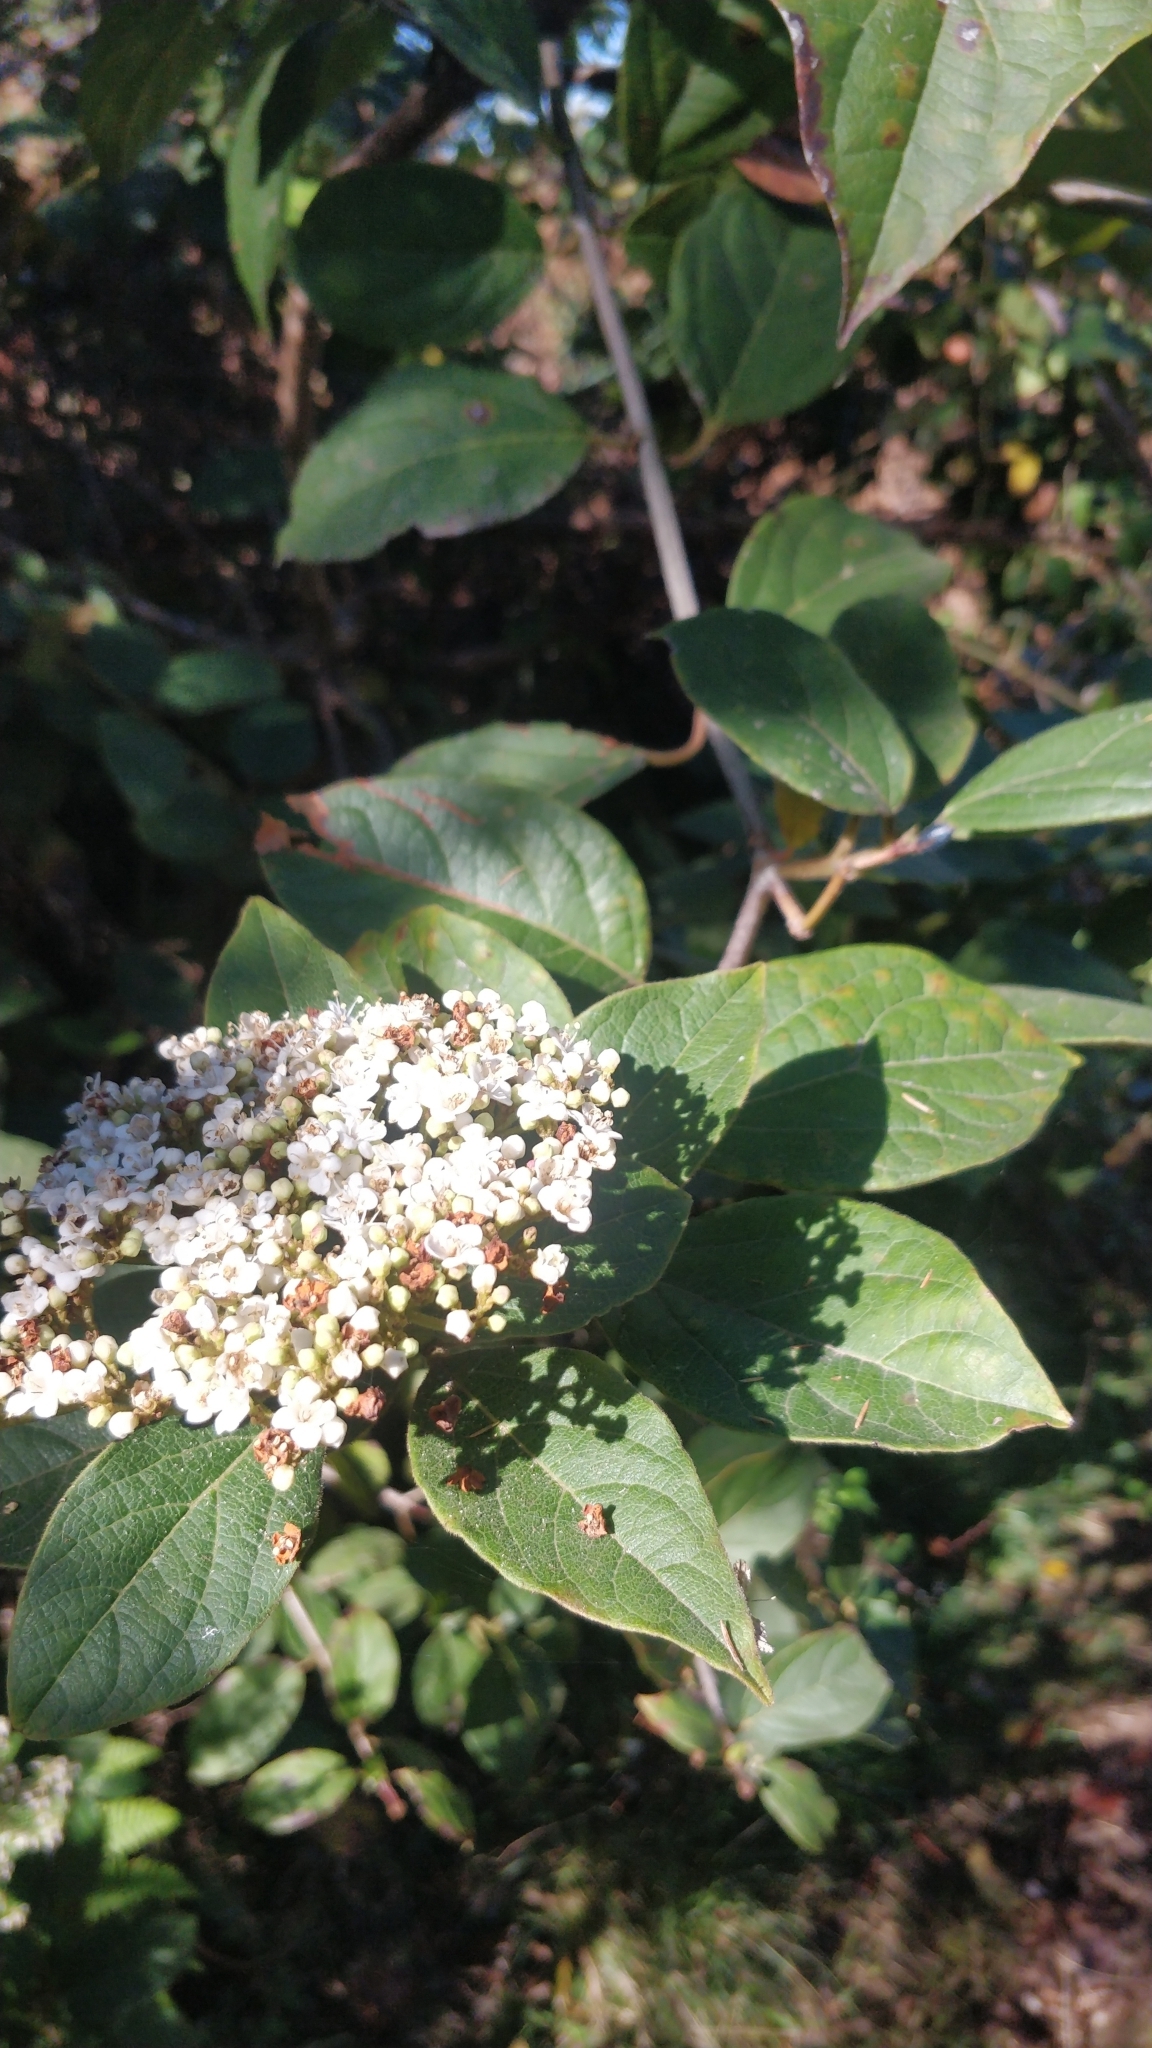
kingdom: Plantae
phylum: Tracheophyta
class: Magnoliopsida
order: Dipsacales
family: Viburnaceae
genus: Viburnum
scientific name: Viburnum rugosum
